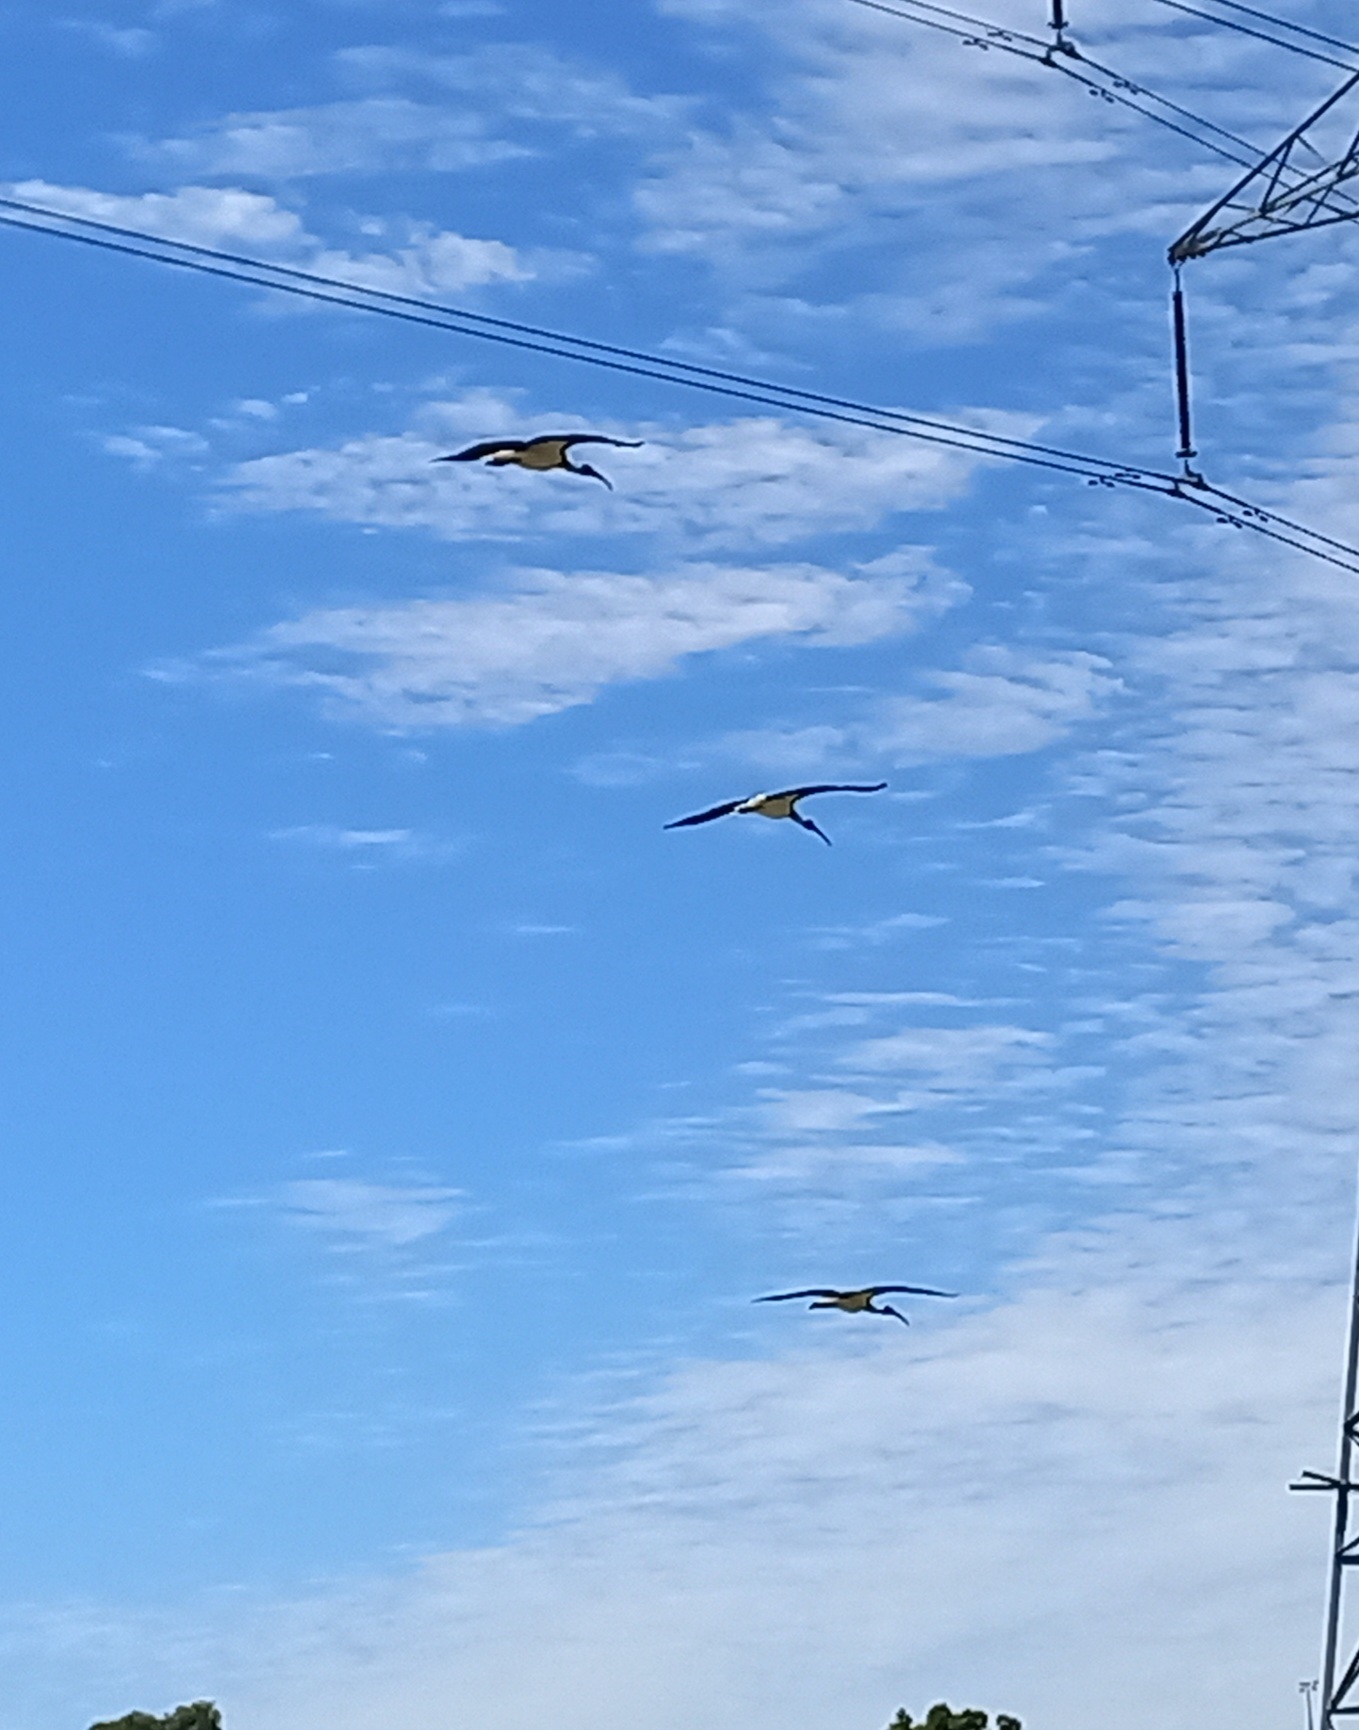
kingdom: Animalia
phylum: Chordata
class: Aves
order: Pelecaniformes
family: Threskiornithidae
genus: Threskiornis
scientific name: Threskiornis spinicollis
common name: Straw-necked ibis
